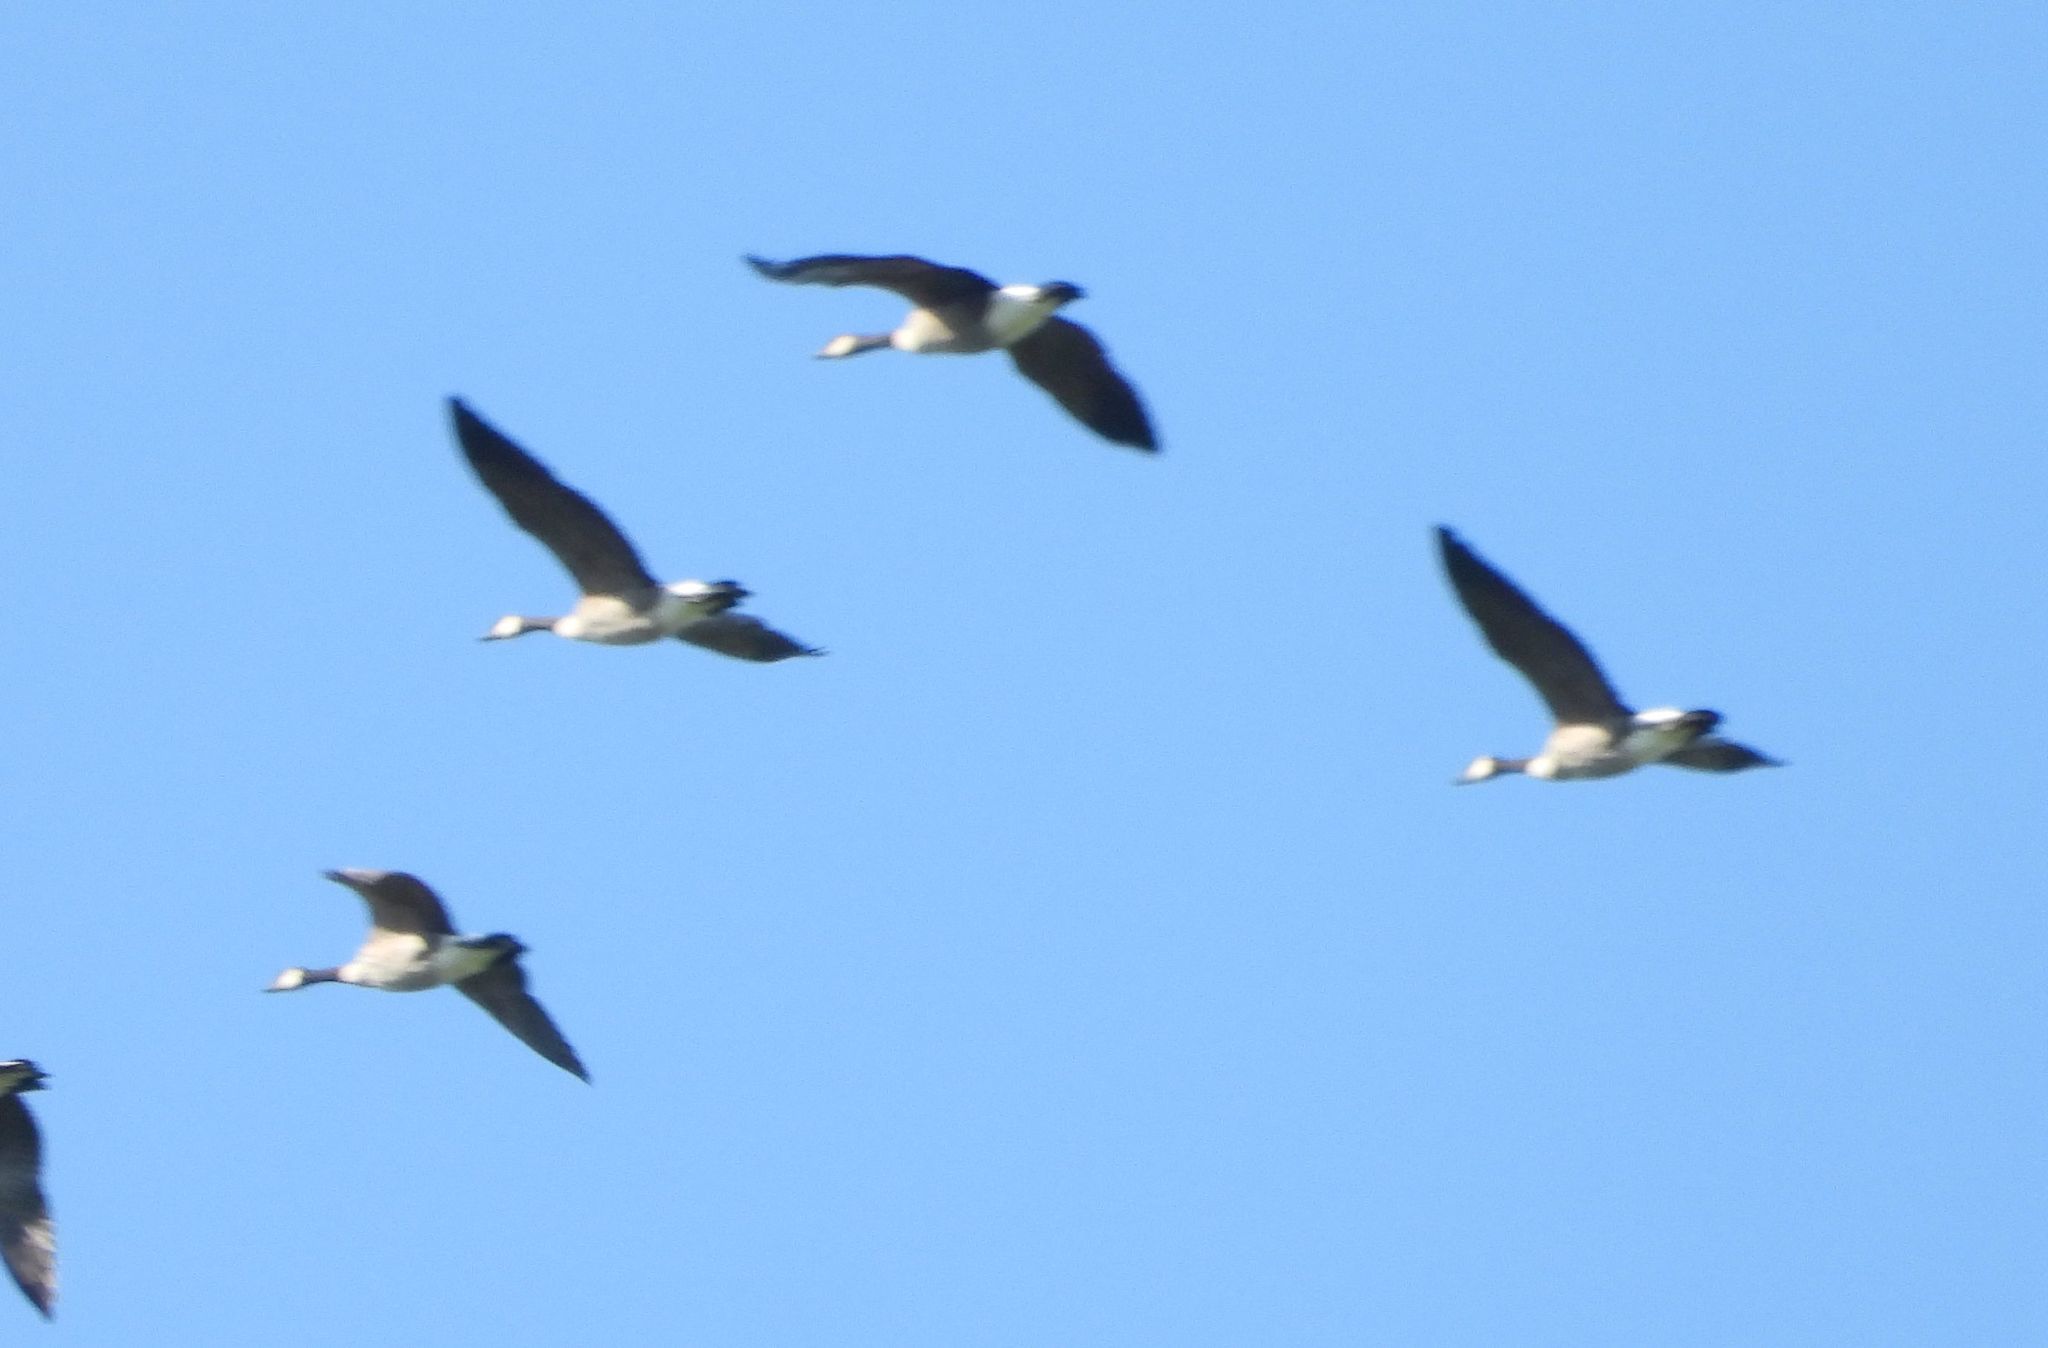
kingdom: Animalia
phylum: Chordata
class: Aves
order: Anseriformes
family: Anatidae
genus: Branta
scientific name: Branta canadensis
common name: Canada goose
